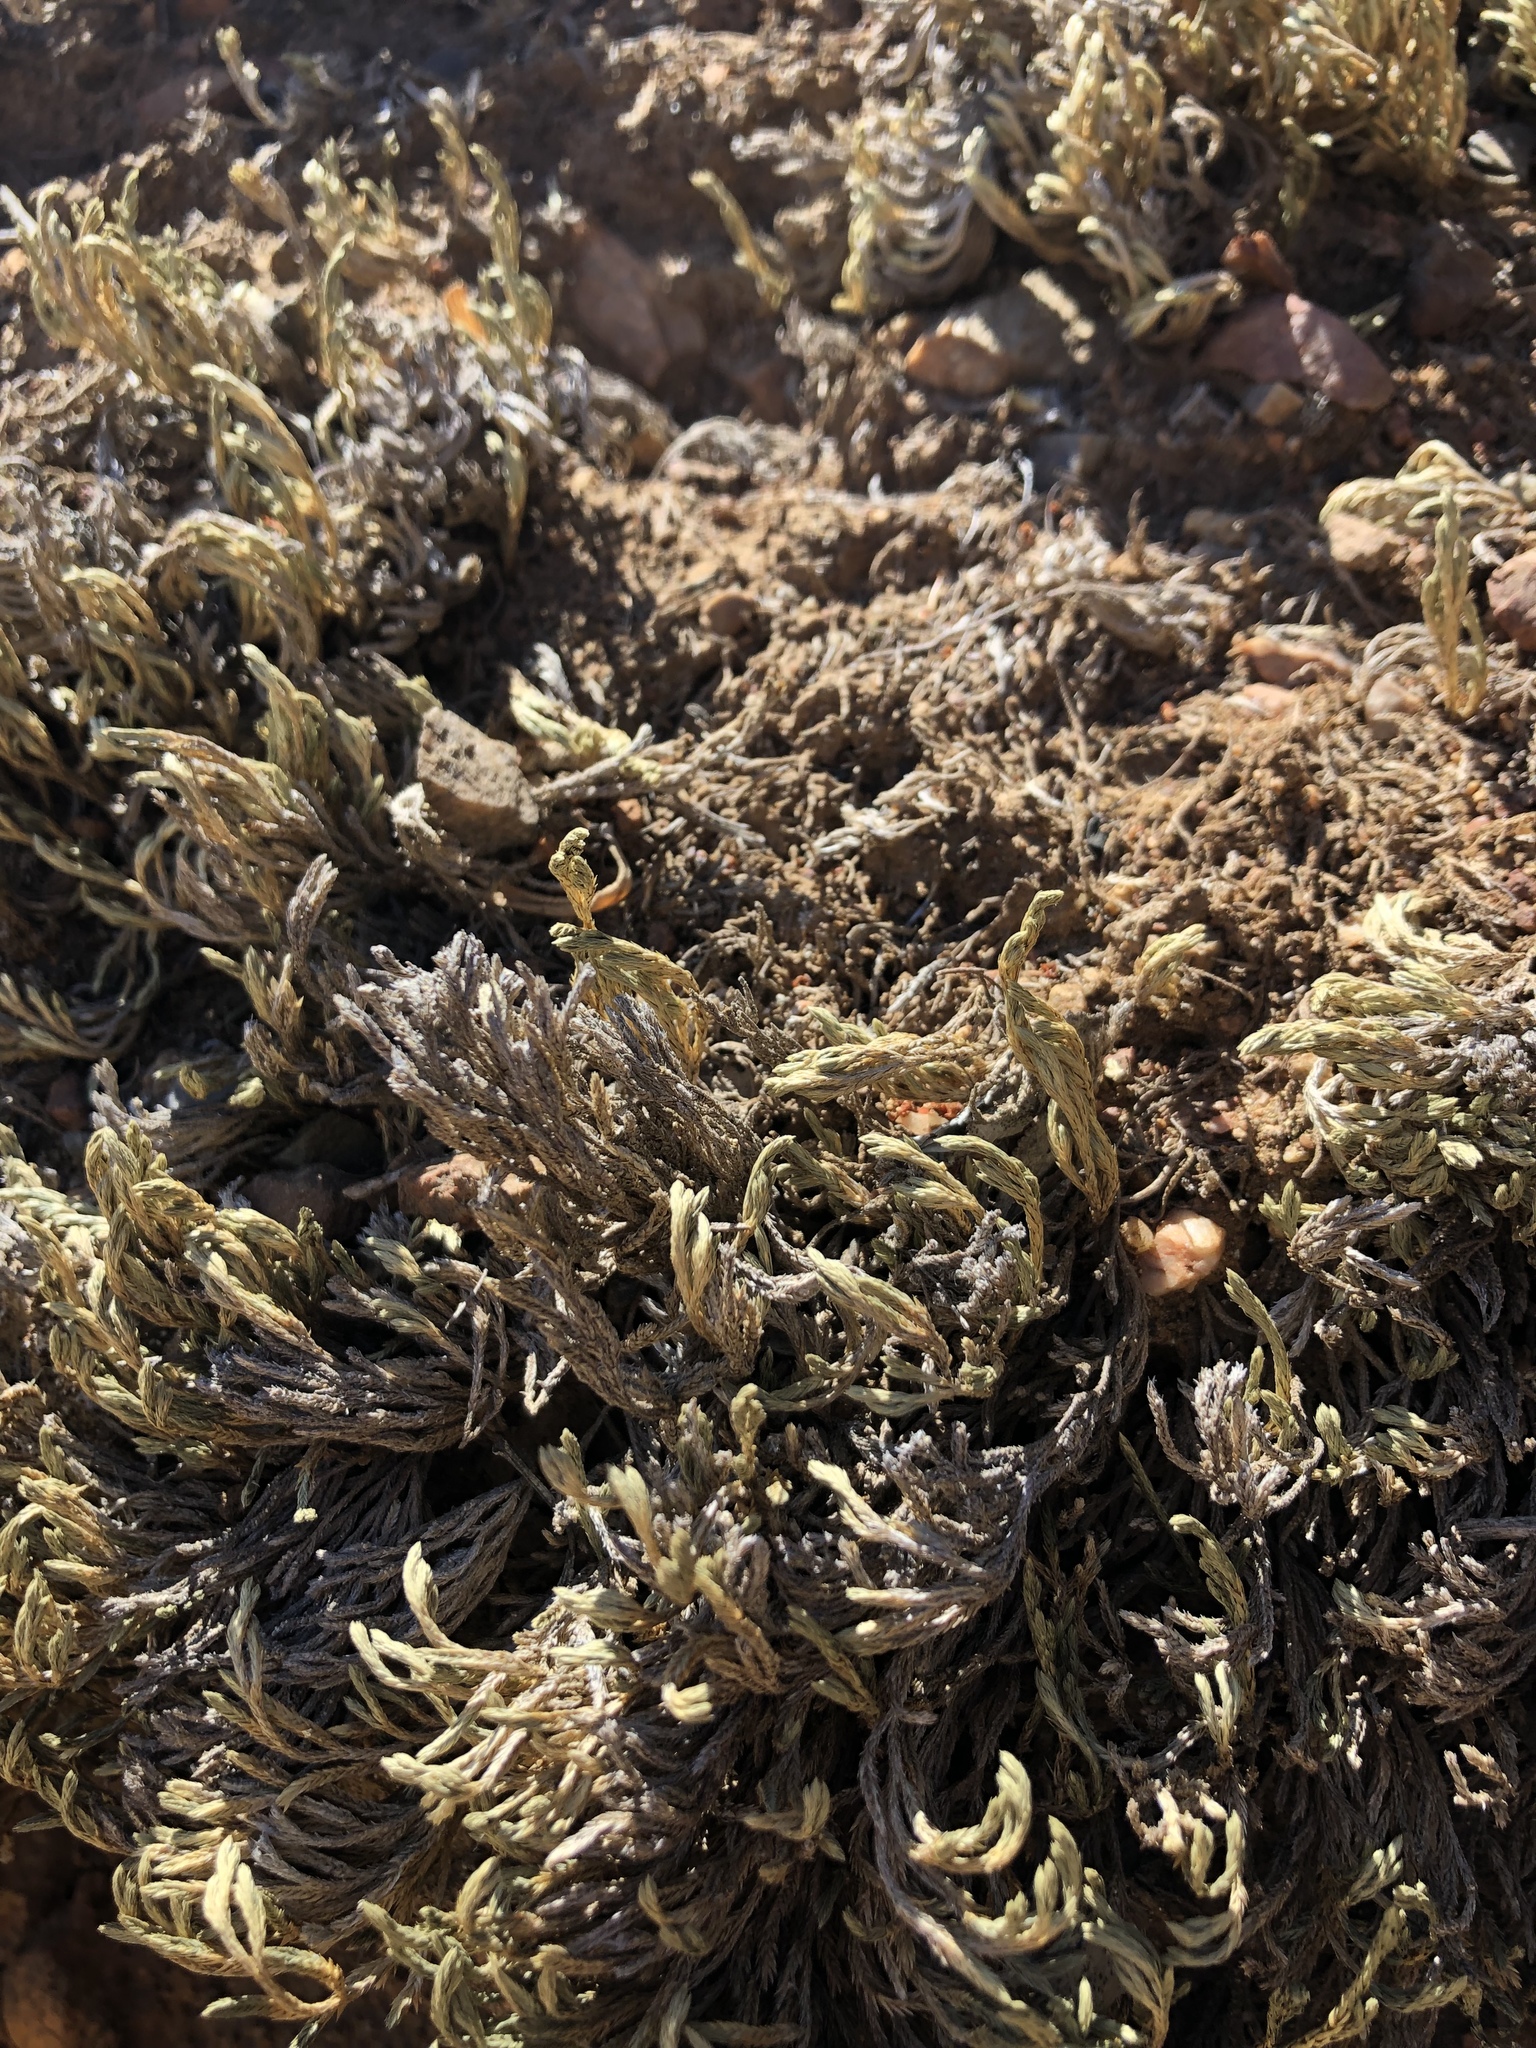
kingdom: Plantae
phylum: Tracheophyta
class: Lycopodiopsida
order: Selaginellales
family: Selaginellaceae
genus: Selaginella
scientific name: Selaginella bigelovii
